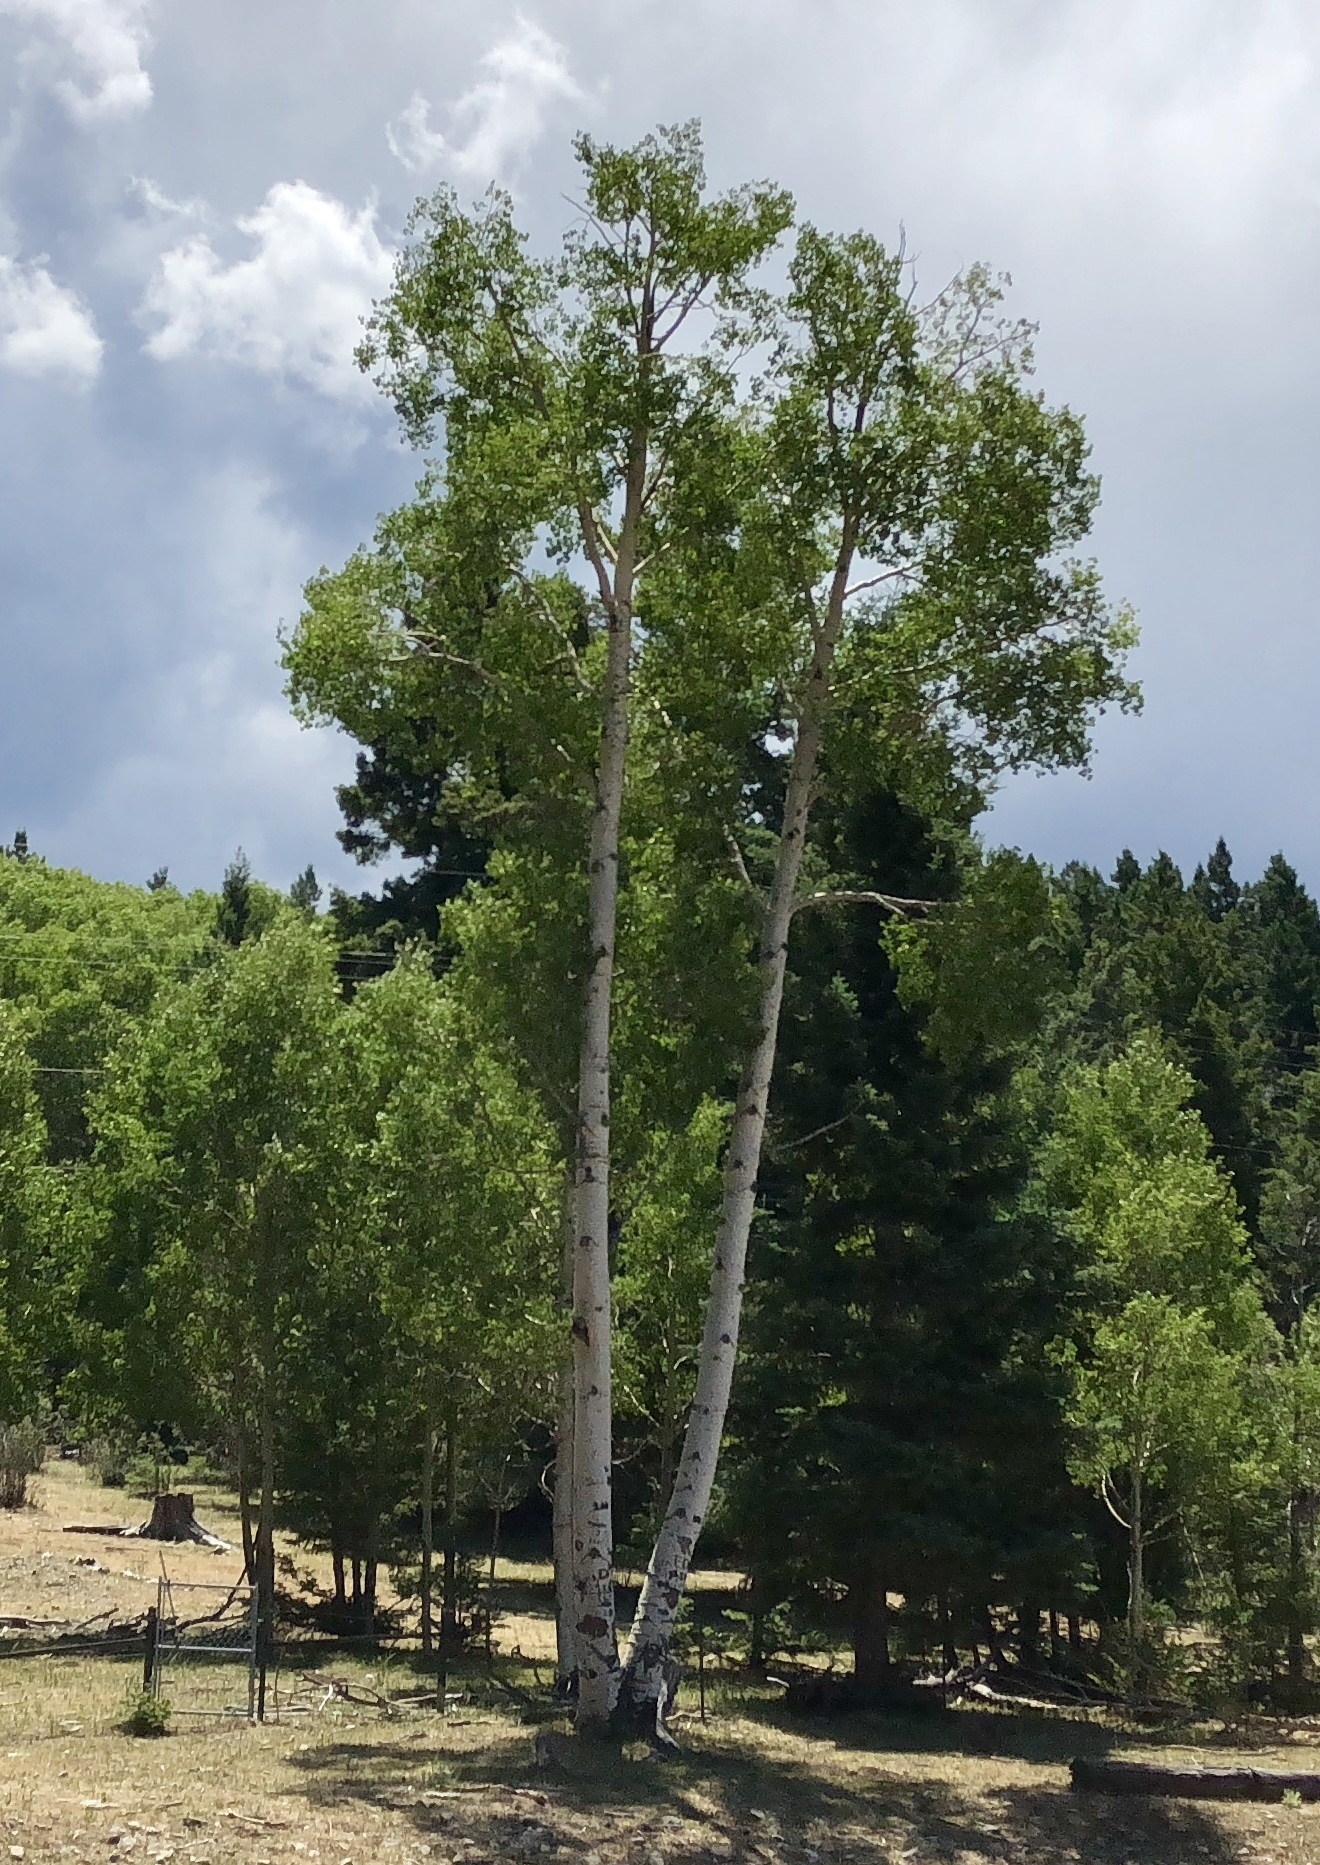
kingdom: Plantae
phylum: Tracheophyta
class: Magnoliopsida
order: Malpighiales
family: Salicaceae
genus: Populus
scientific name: Populus tremuloides
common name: Quaking aspen
